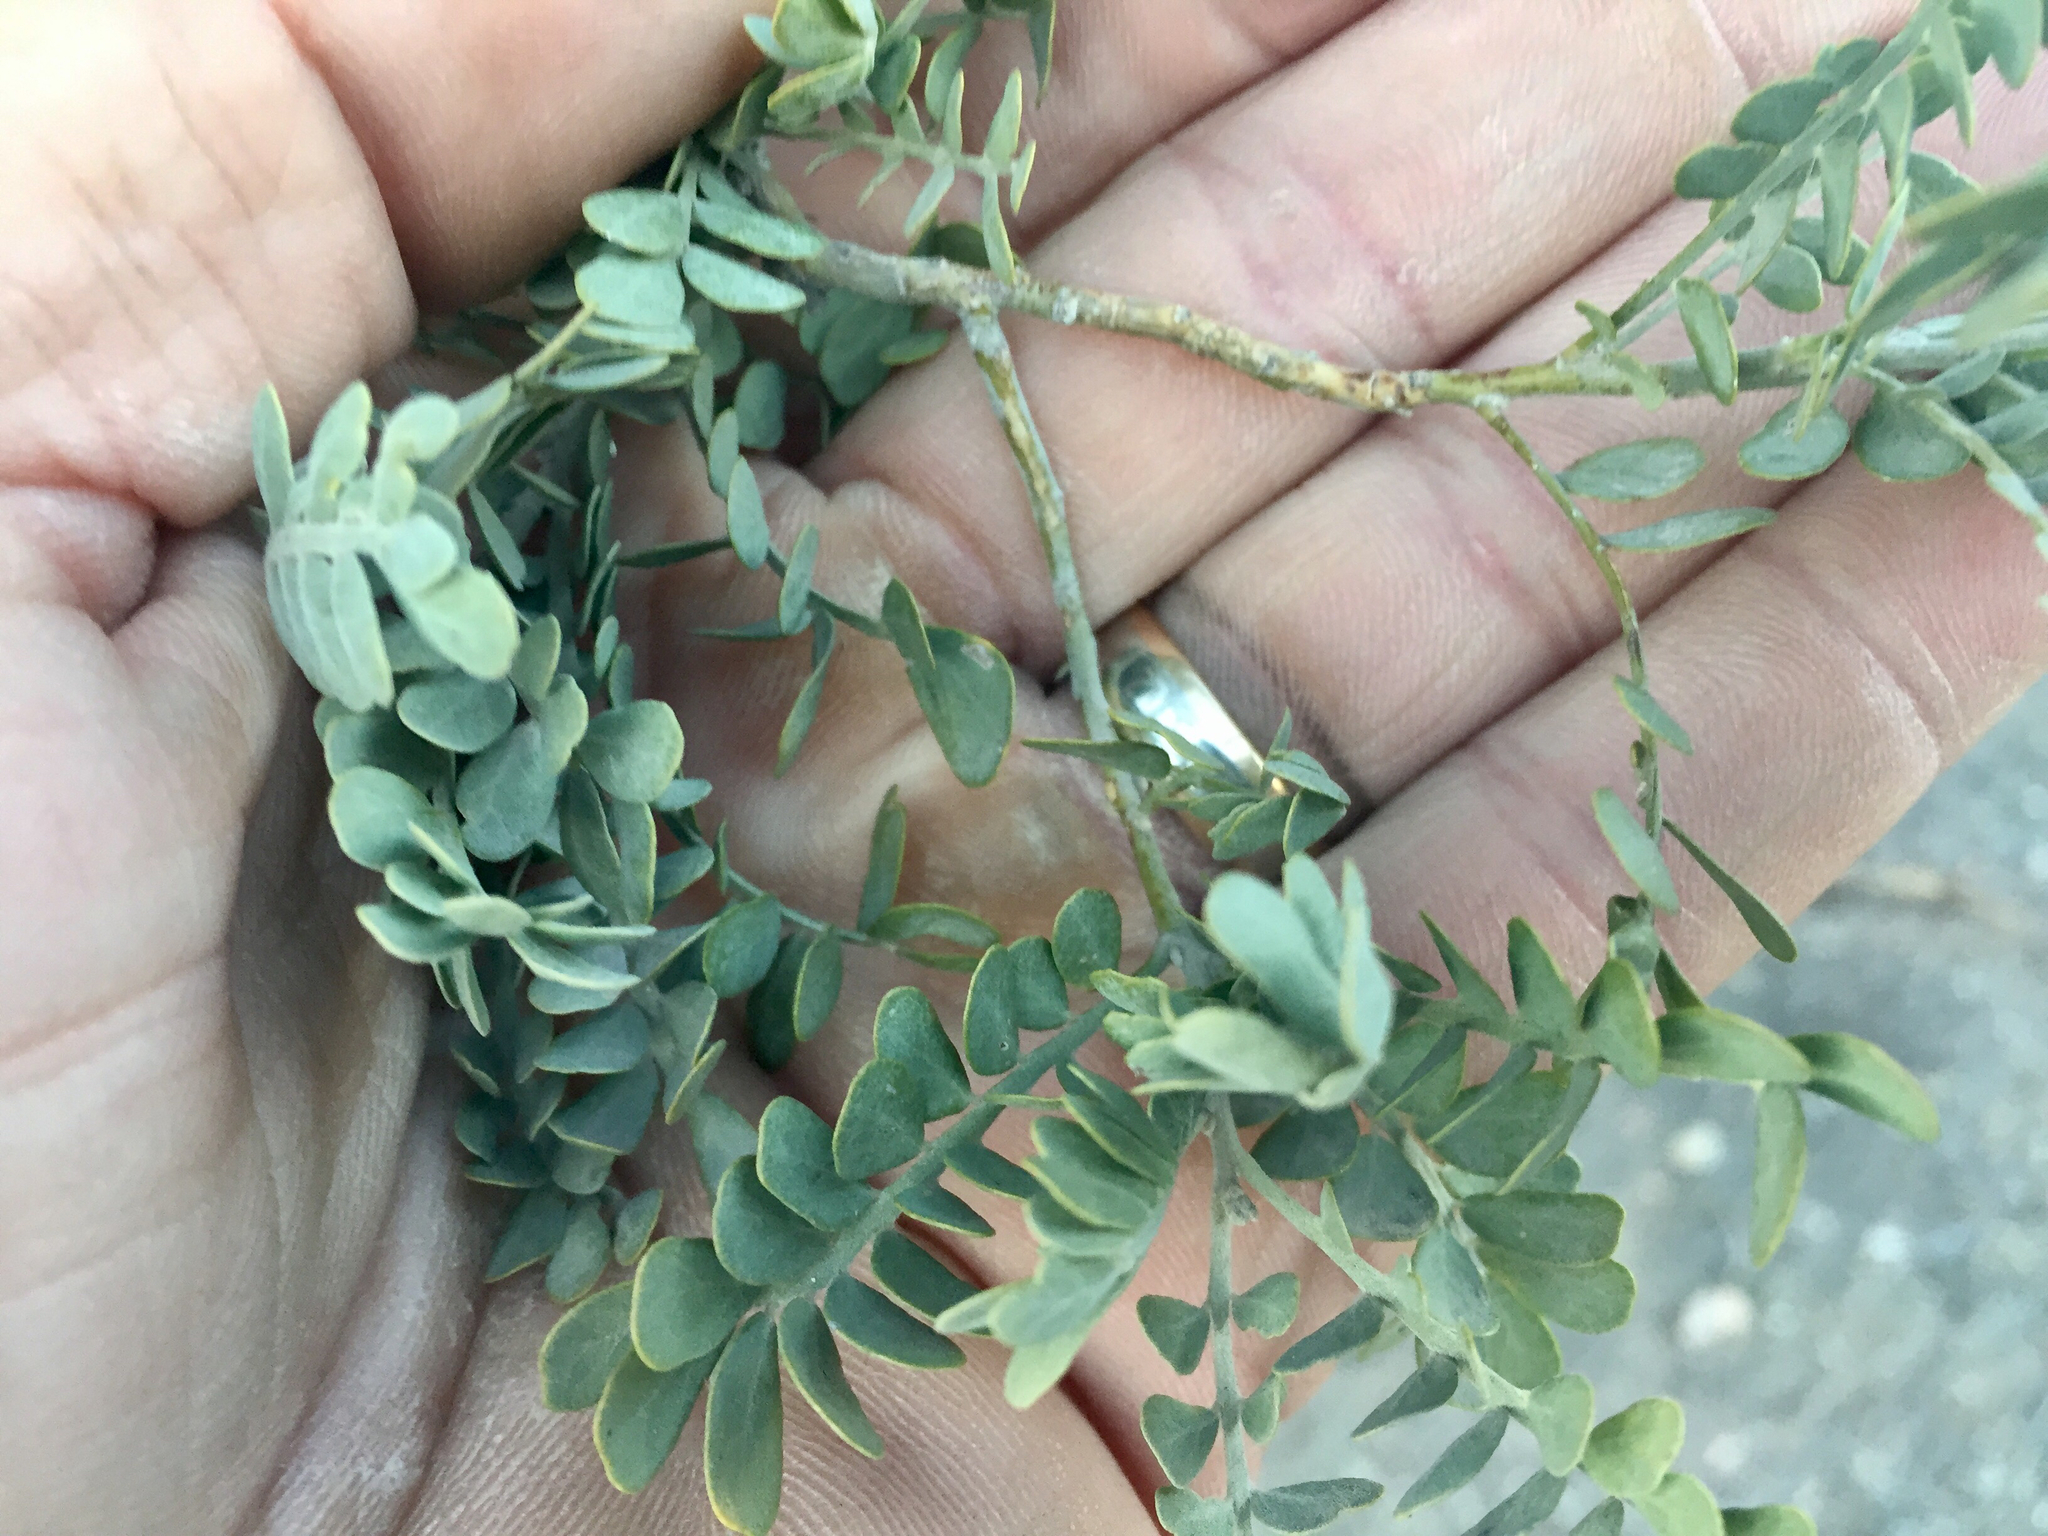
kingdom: Plantae
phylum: Tracheophyta
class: Magnoliopsida
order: Fabales
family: Fabaceae
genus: Olneya
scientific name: Olneya tesota
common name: Desert ironwood
